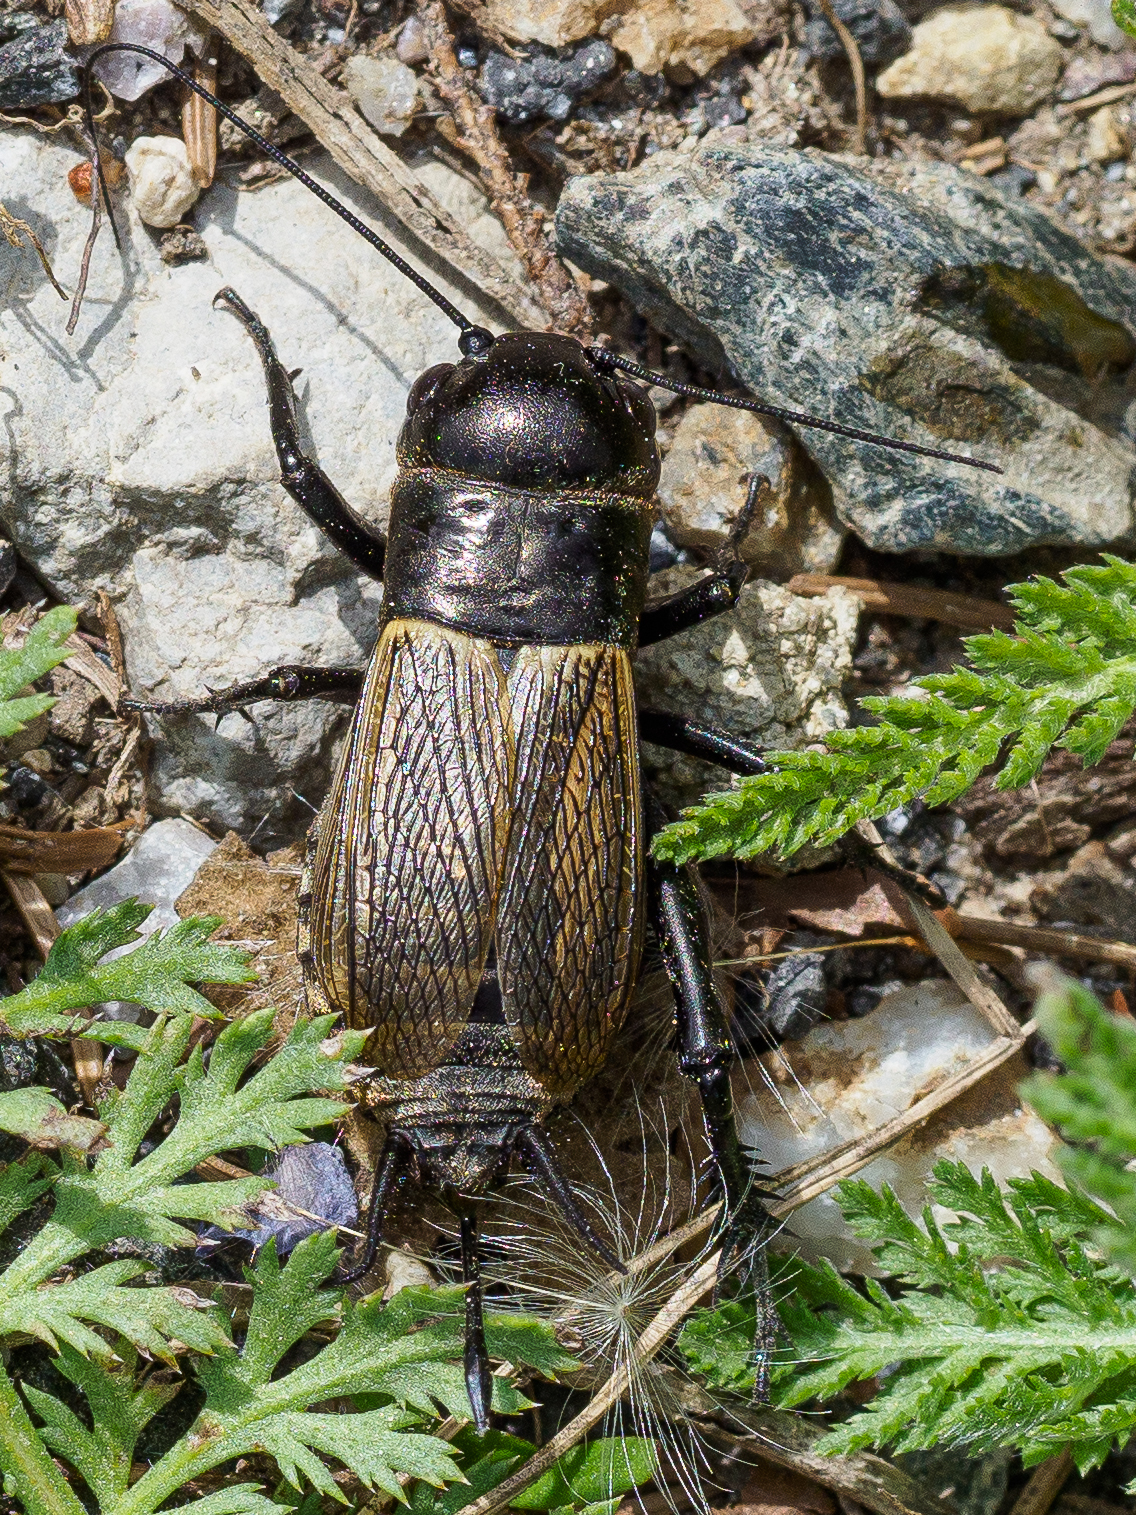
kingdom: Animalia
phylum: Arthropoda
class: Insecta
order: Orthoptera
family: Gryllidae
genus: Gryllus
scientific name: Gryllus campestris
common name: Field cricket
